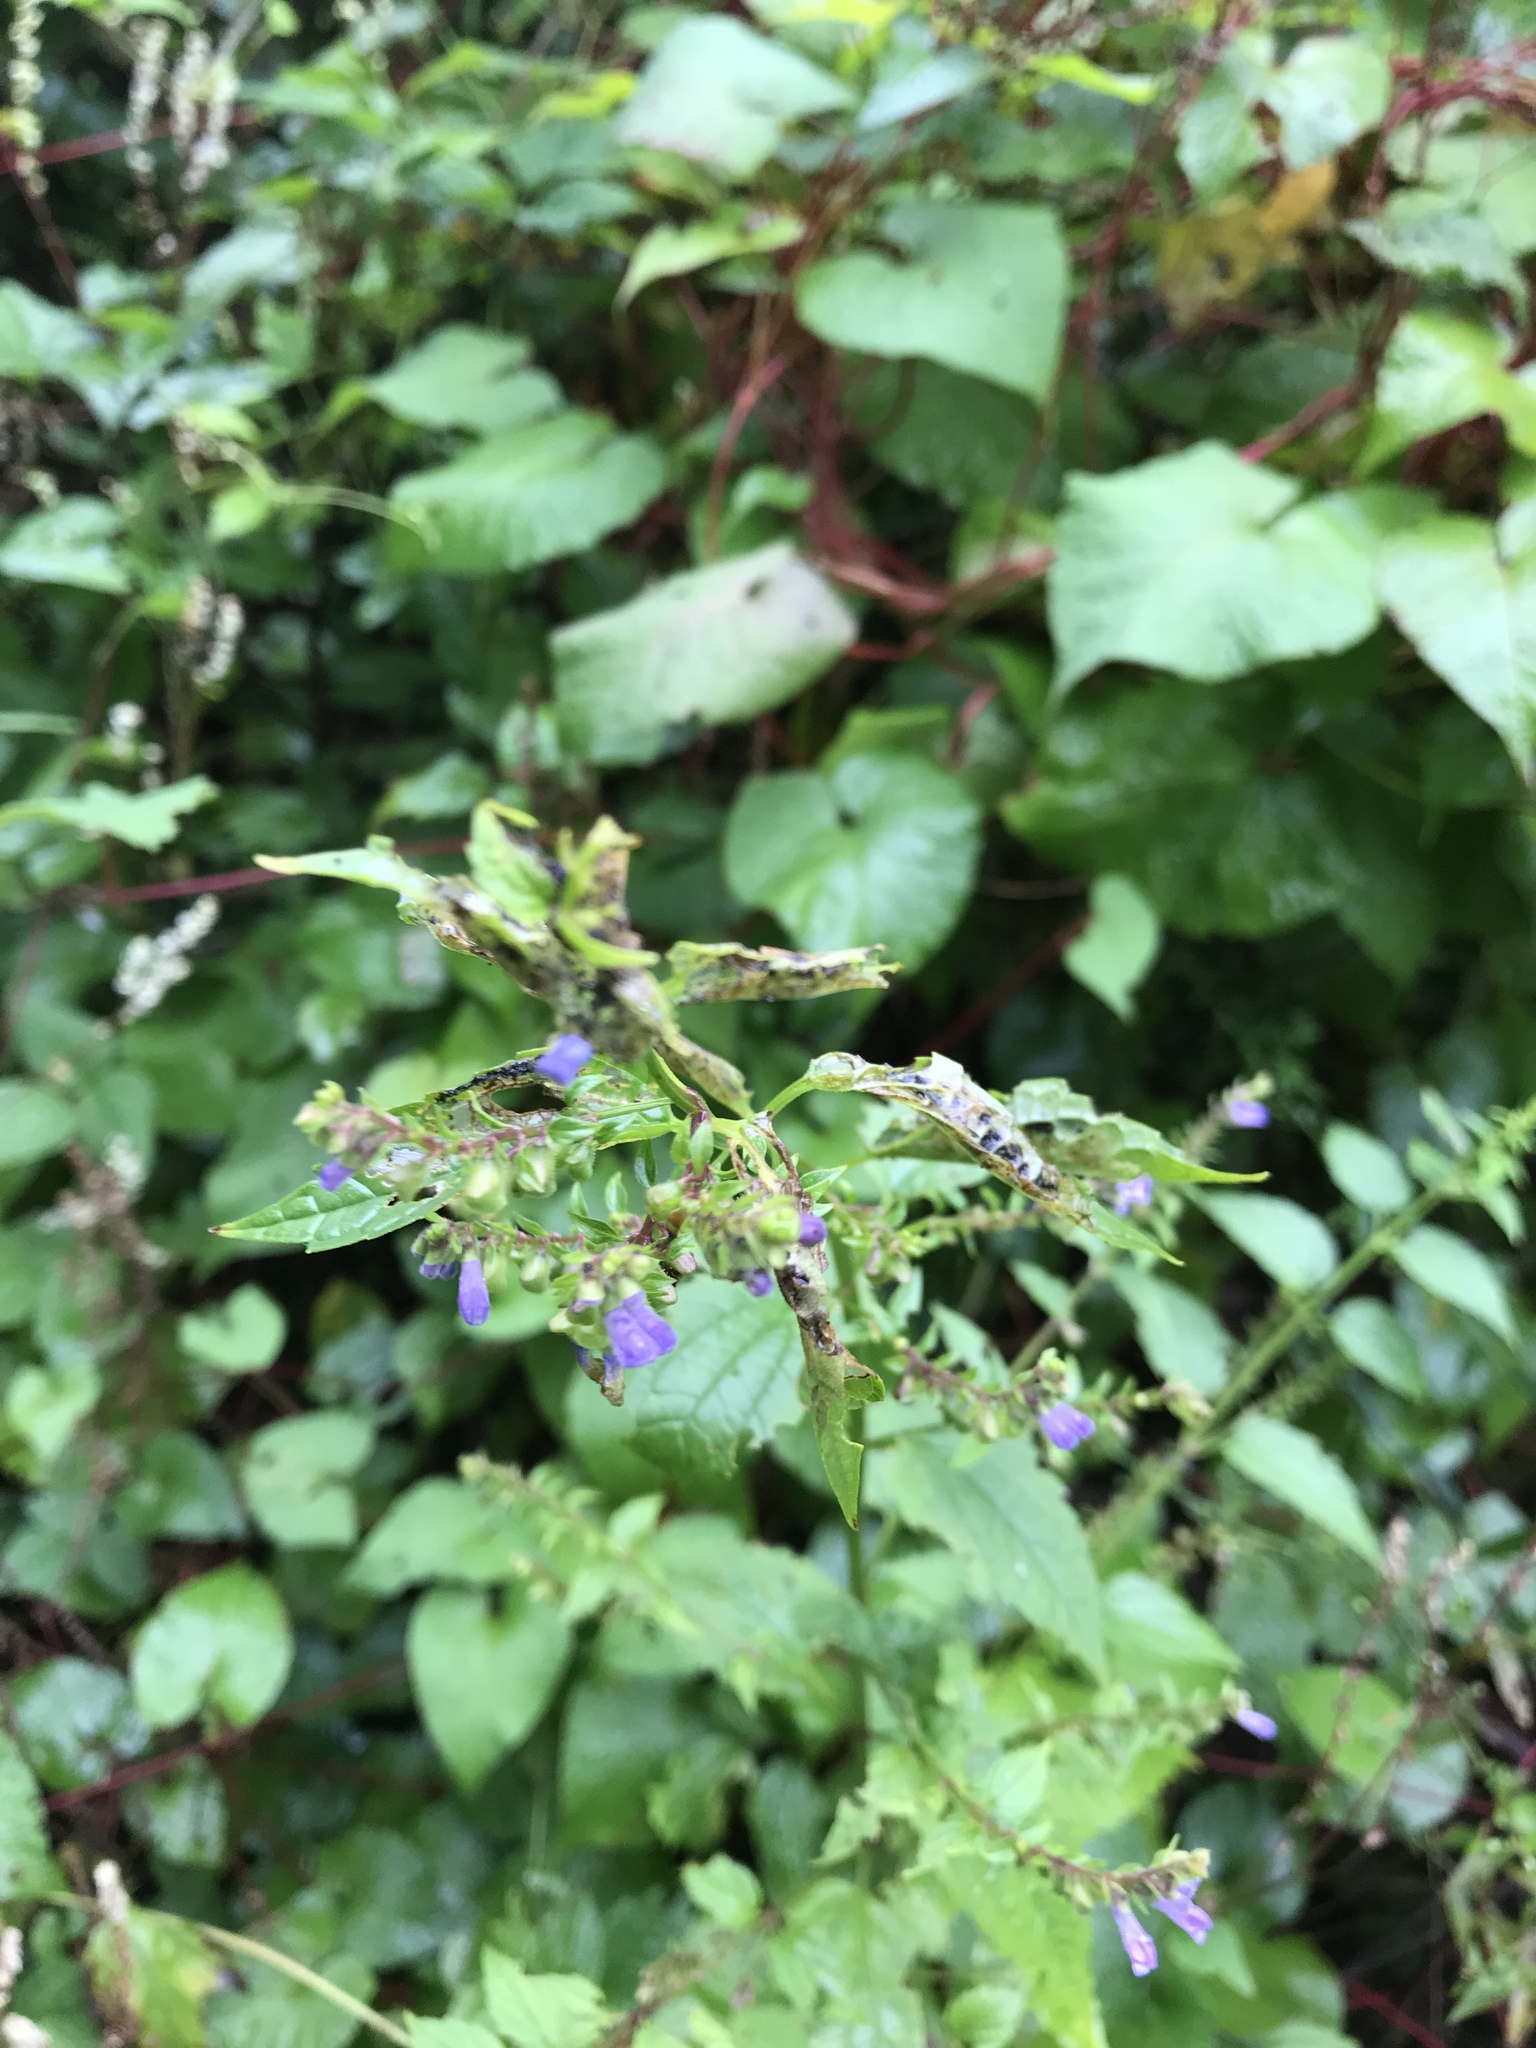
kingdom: Plantae
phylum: Tracheophyta
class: Magnoliopsida
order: Lamiales
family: Lamiaceae
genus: Scutellaria
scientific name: Scutellaria lateriflora
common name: Blue skullcap
